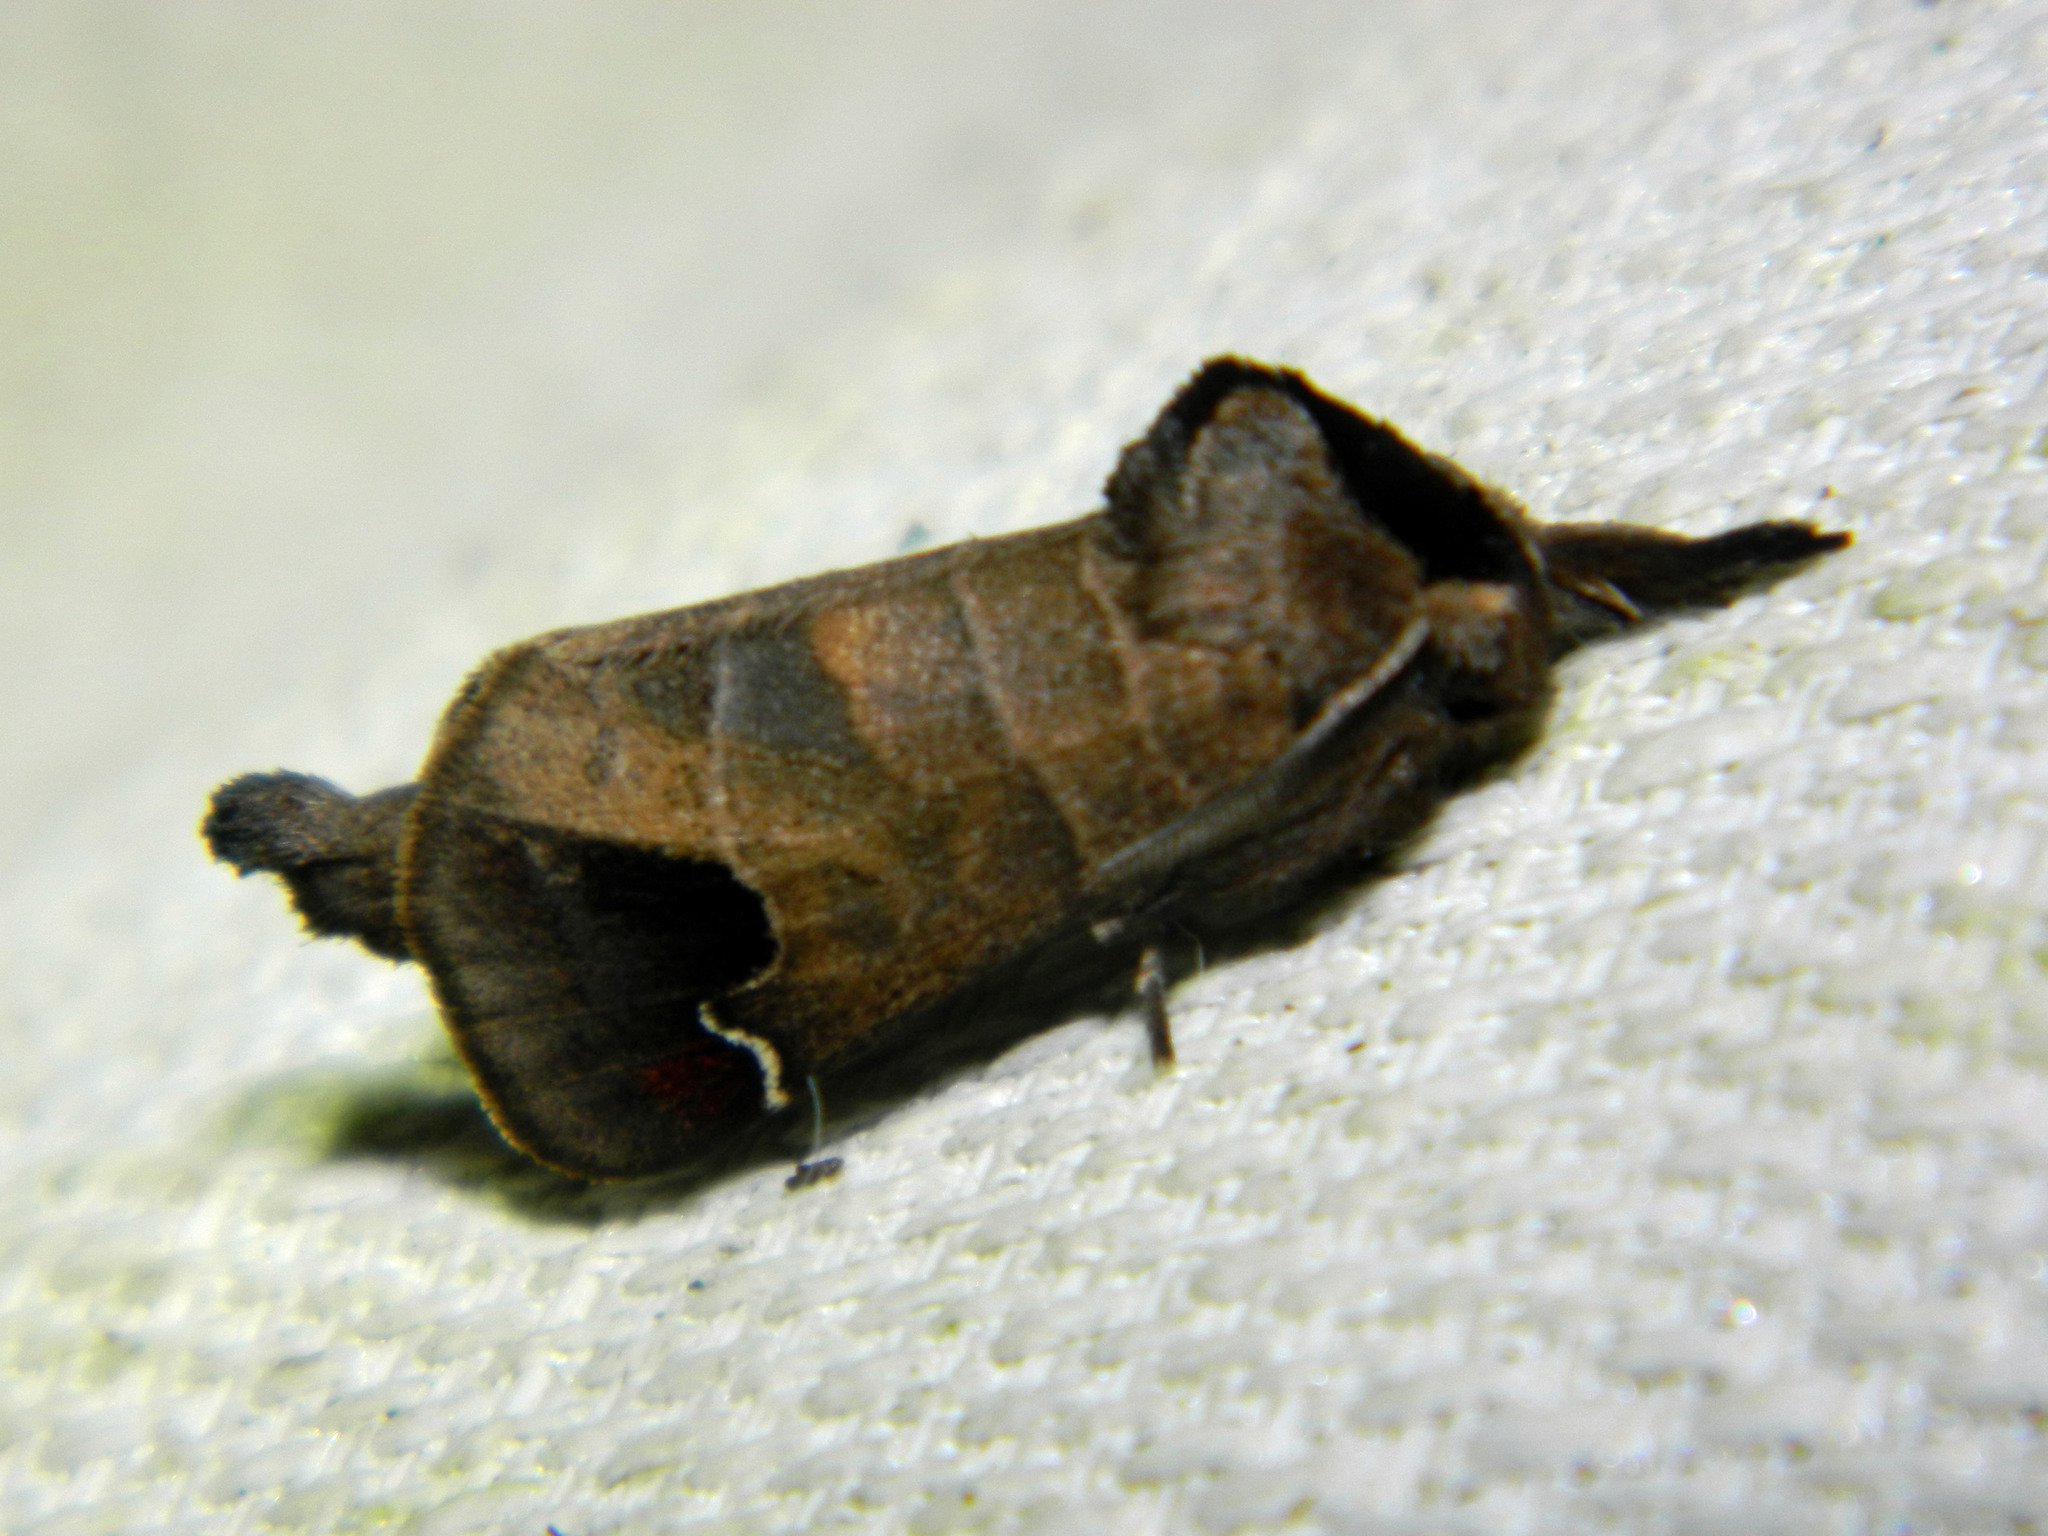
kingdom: Animalia
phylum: Arthropoda
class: Insecta
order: Lepidoptera
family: Notodontidae
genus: Clostera
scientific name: Clostera albosigma
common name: Sigmoid prominent
